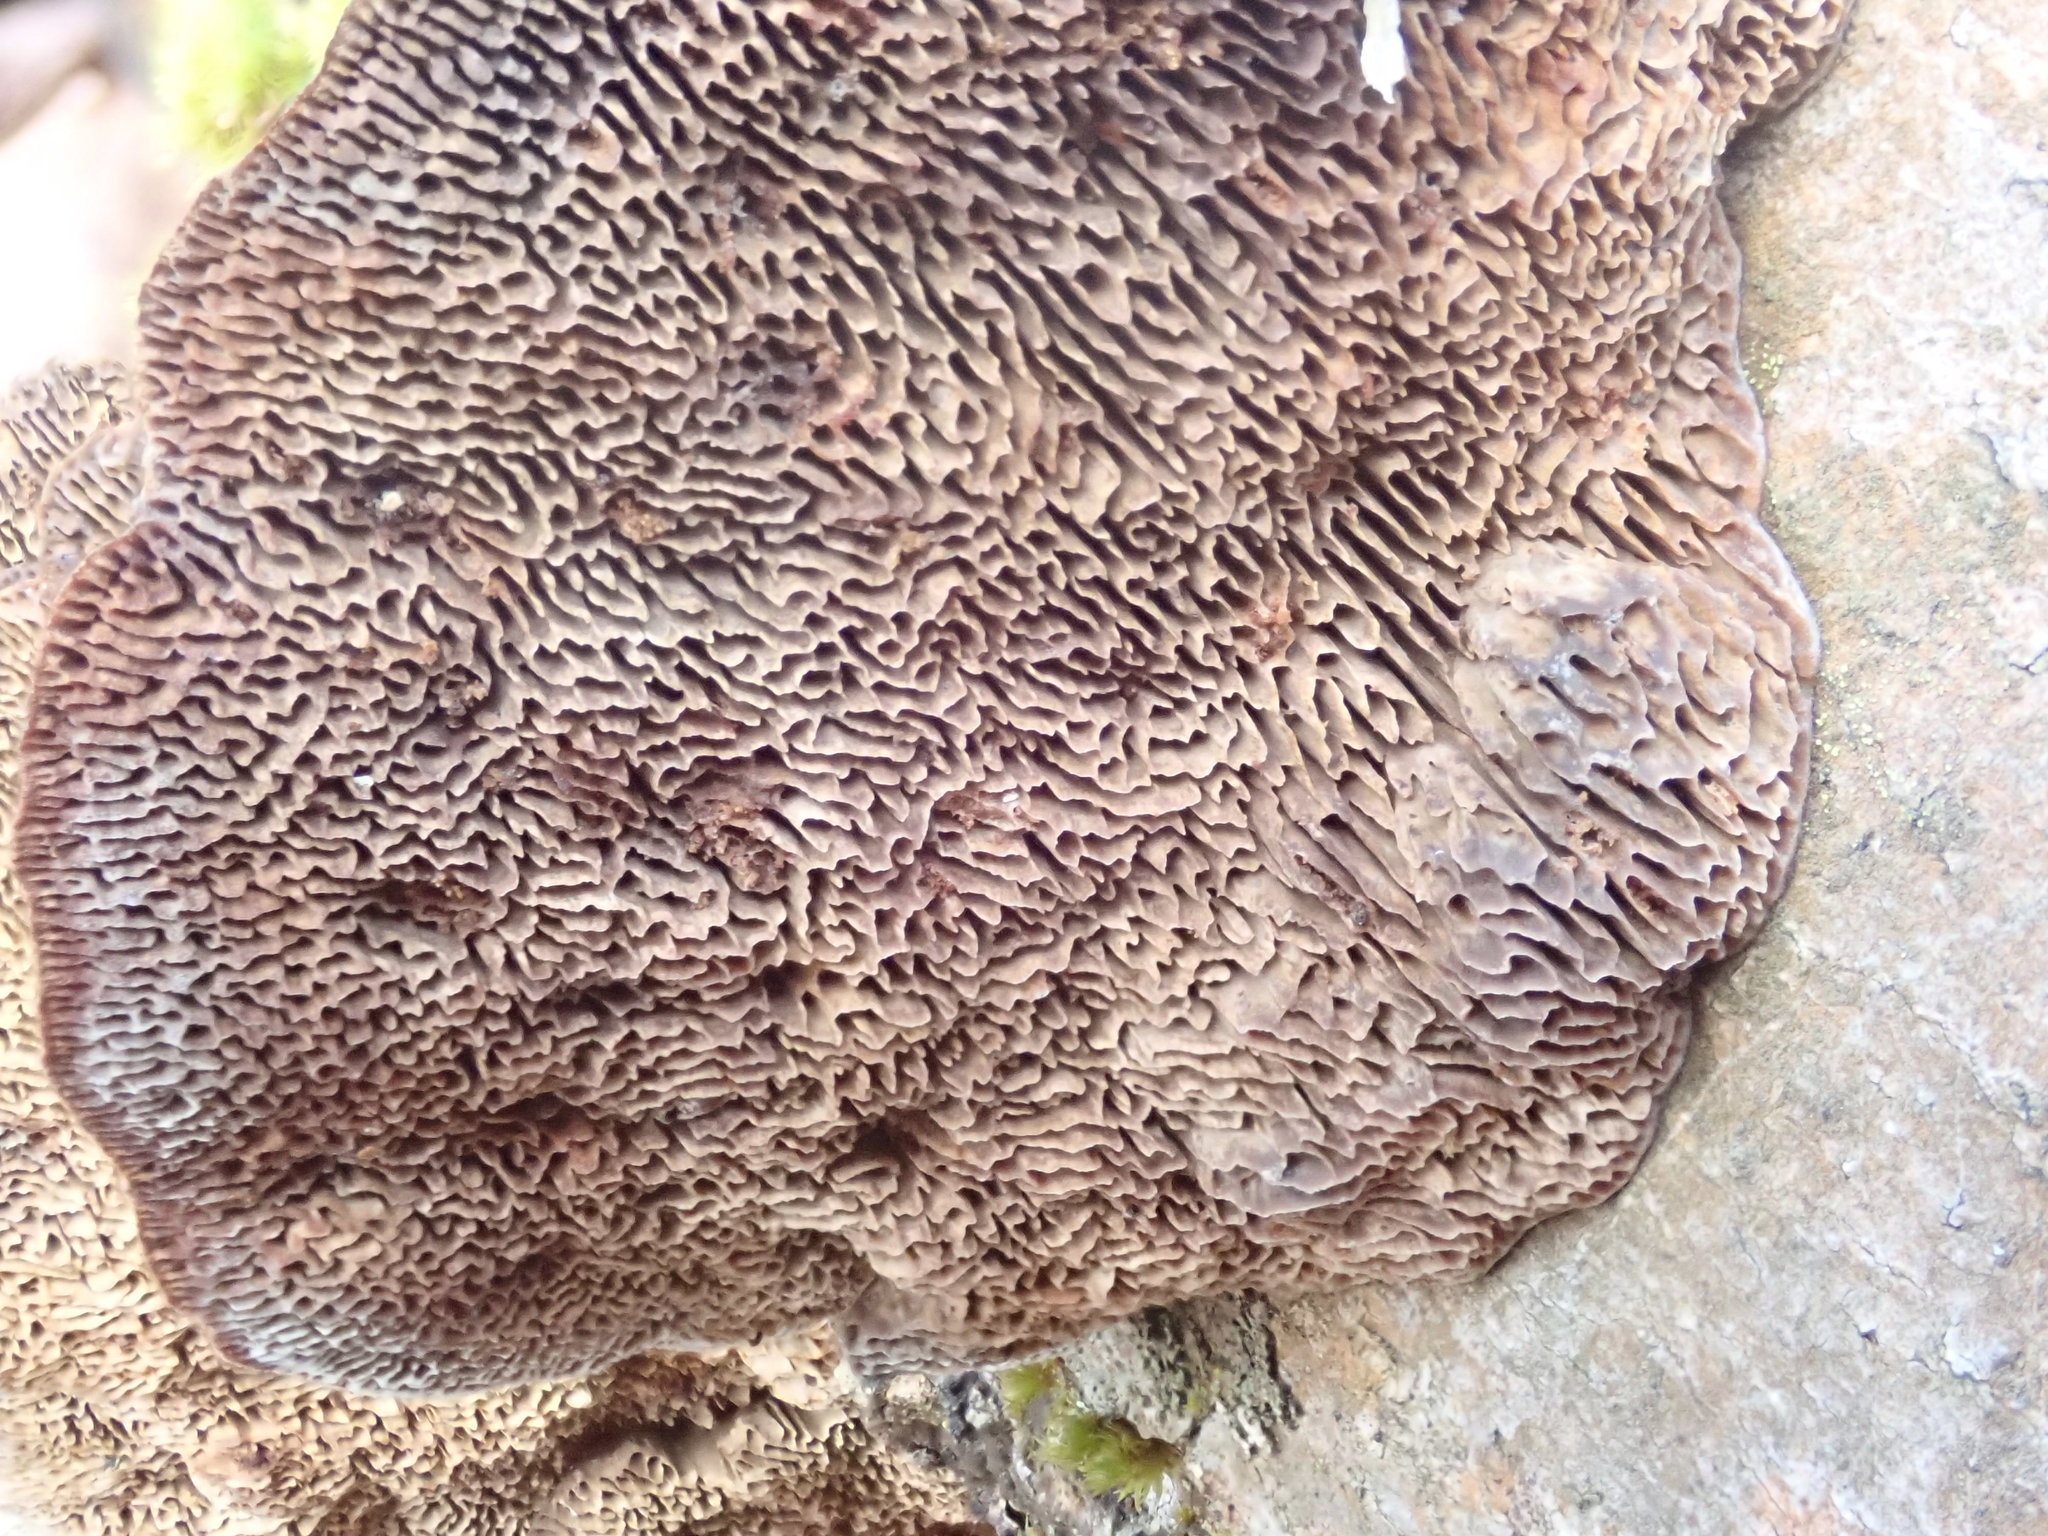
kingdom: Fungi
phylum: Basidiomycota
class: Agaricomycetes
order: Polyporales
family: Polyporaceae
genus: Daedaleopsis
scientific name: Daedaleopsis confragosa
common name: Blushing bracket
